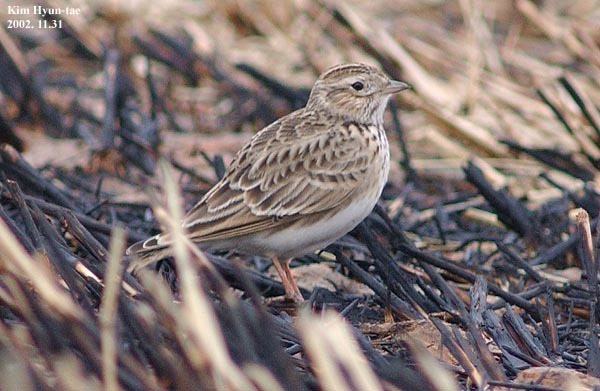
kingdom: Animalia
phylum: Chordata
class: Aves
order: Passeriformes
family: Alaudidae
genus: Alaudala
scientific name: Alaudala cheleensis
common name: Asian short-toed lark
